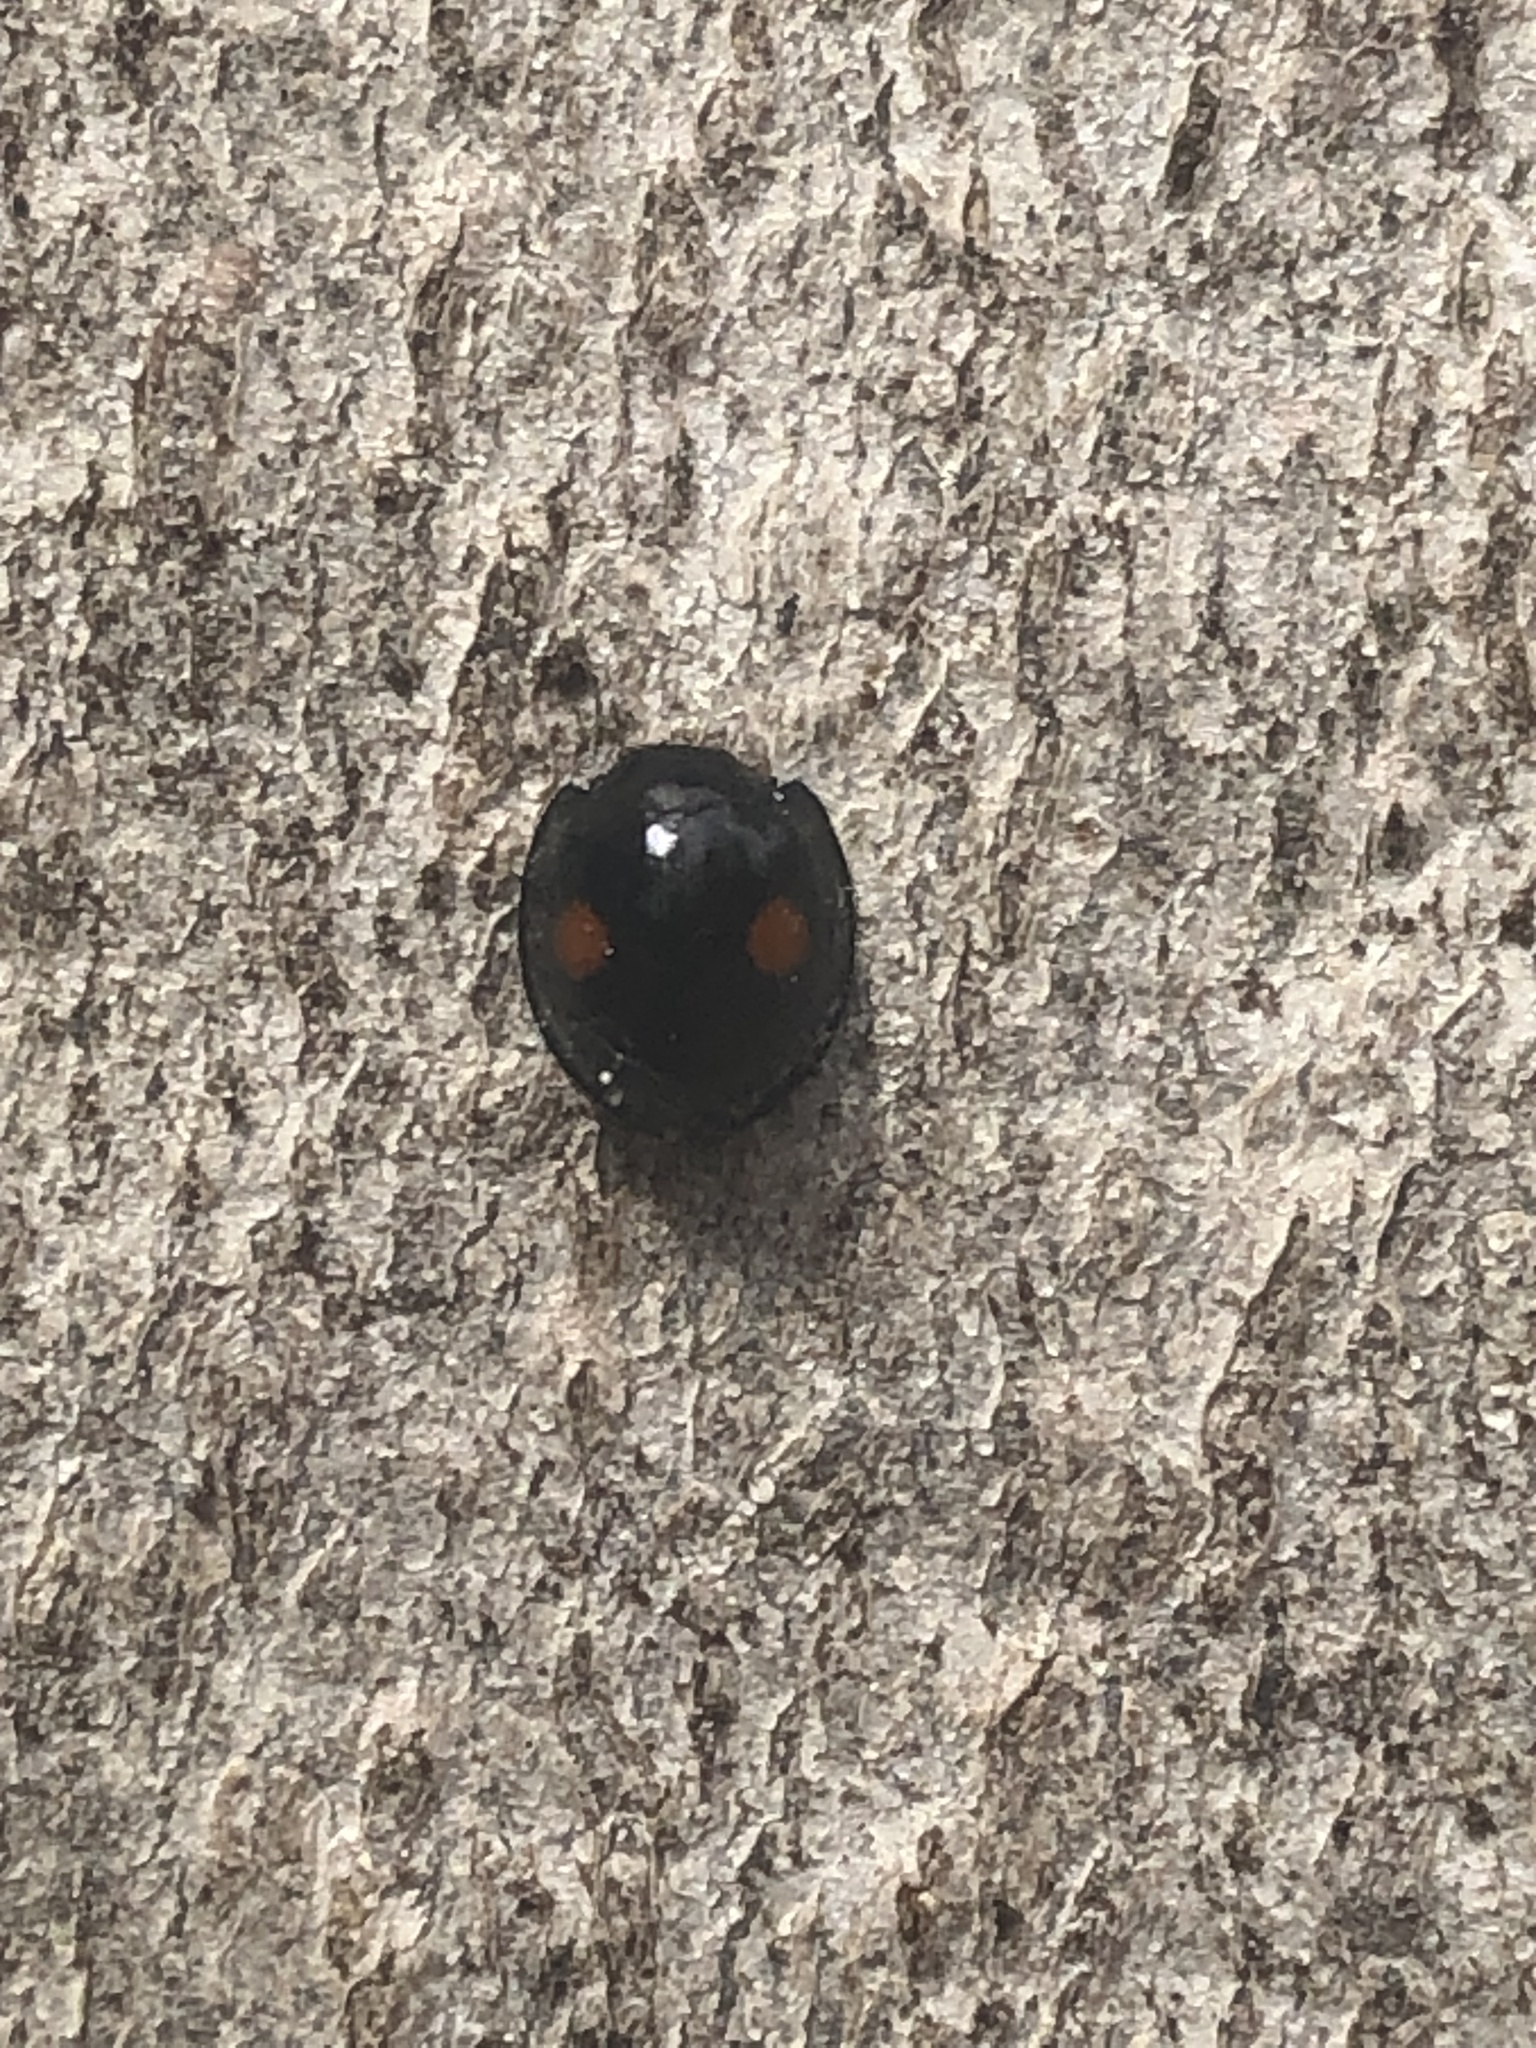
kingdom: Animalia
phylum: Arthropoda
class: Insecta
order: Coleoptera
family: Coccinellidae
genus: Chilocorus
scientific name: Chilocorus stigma
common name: Twicestabbed lady beetle
